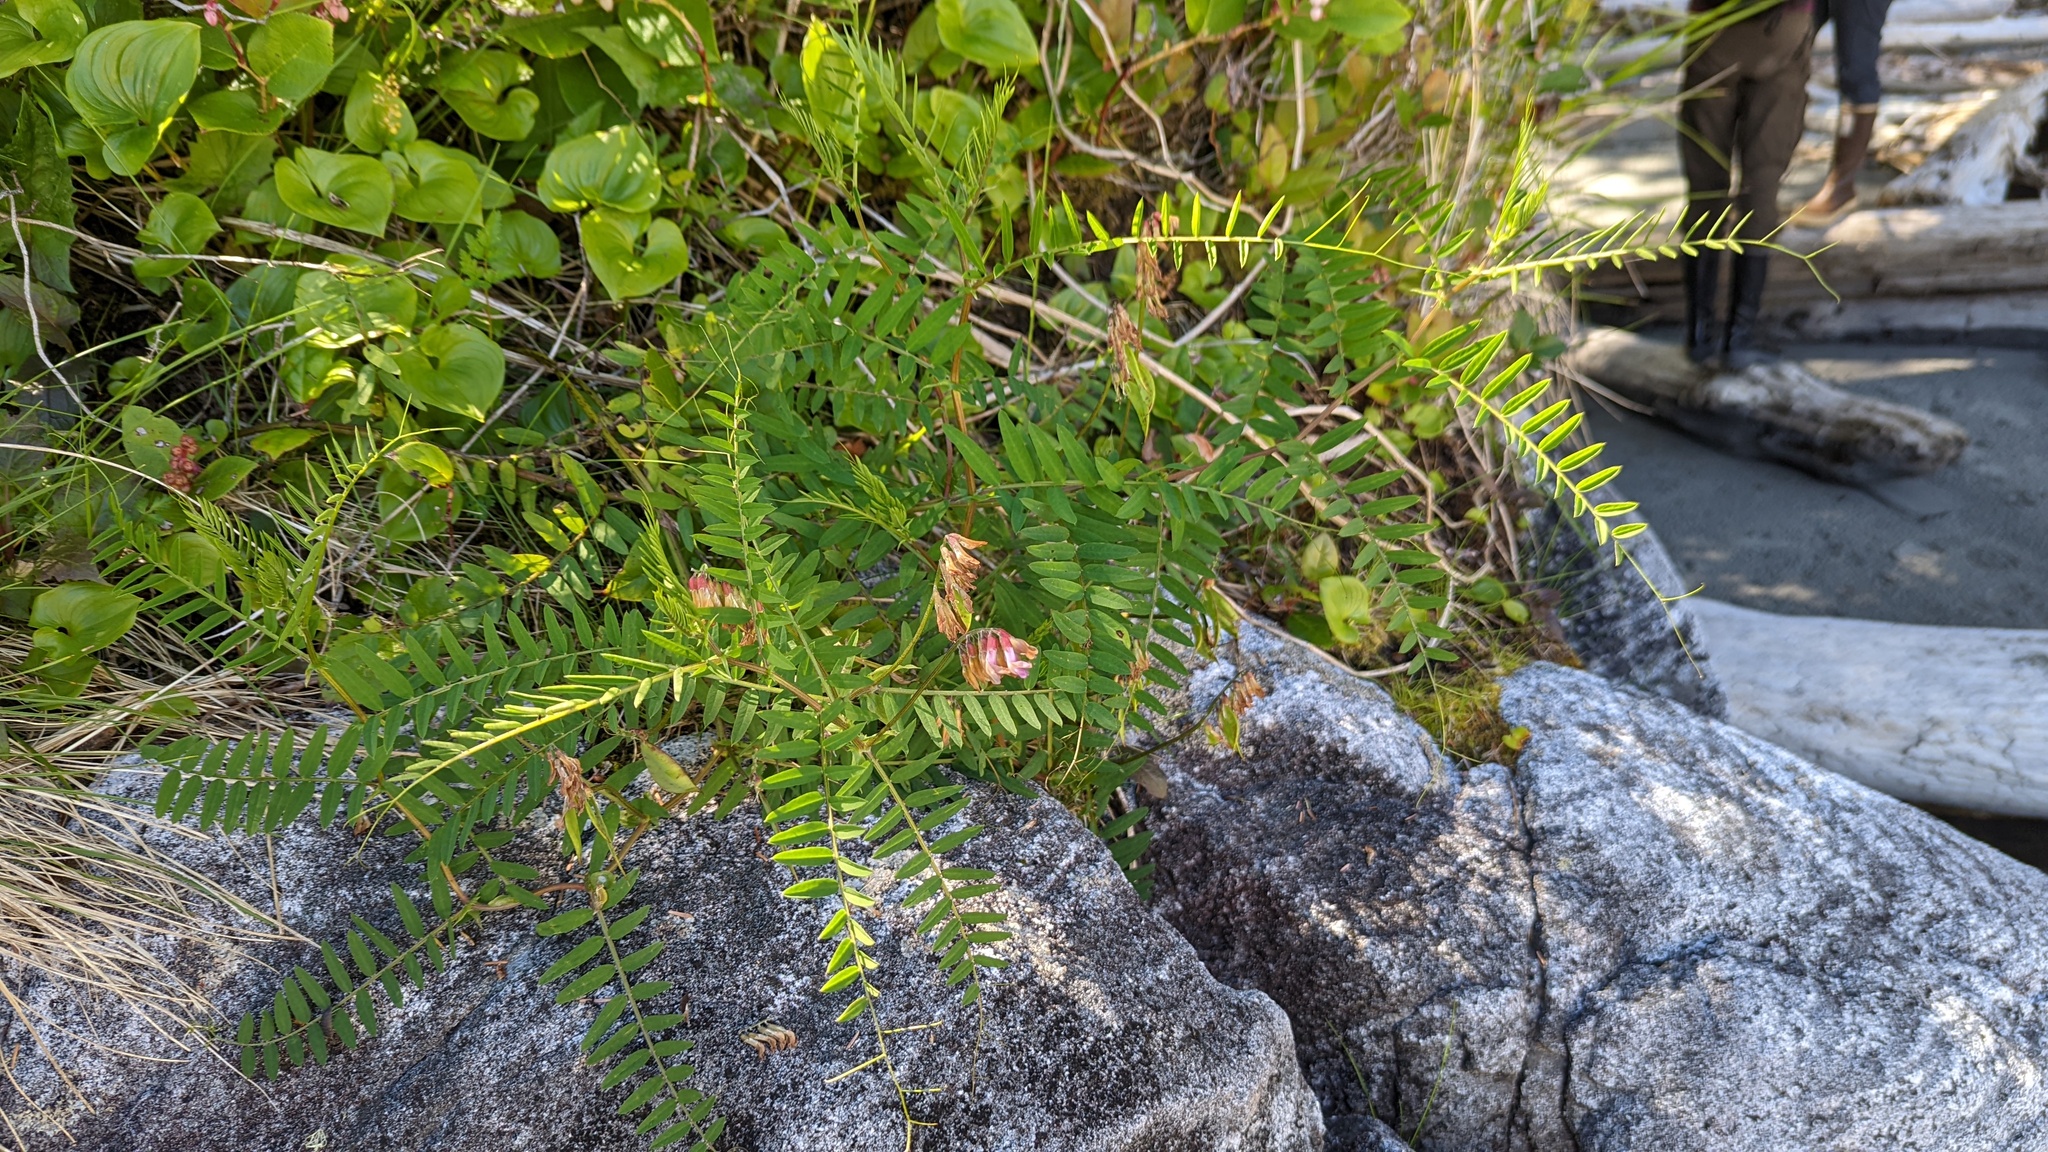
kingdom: Plantae
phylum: Tracheophyta
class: Magnoliopsida
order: Fabales
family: Fabaceae
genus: Vicia
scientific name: Vicia
